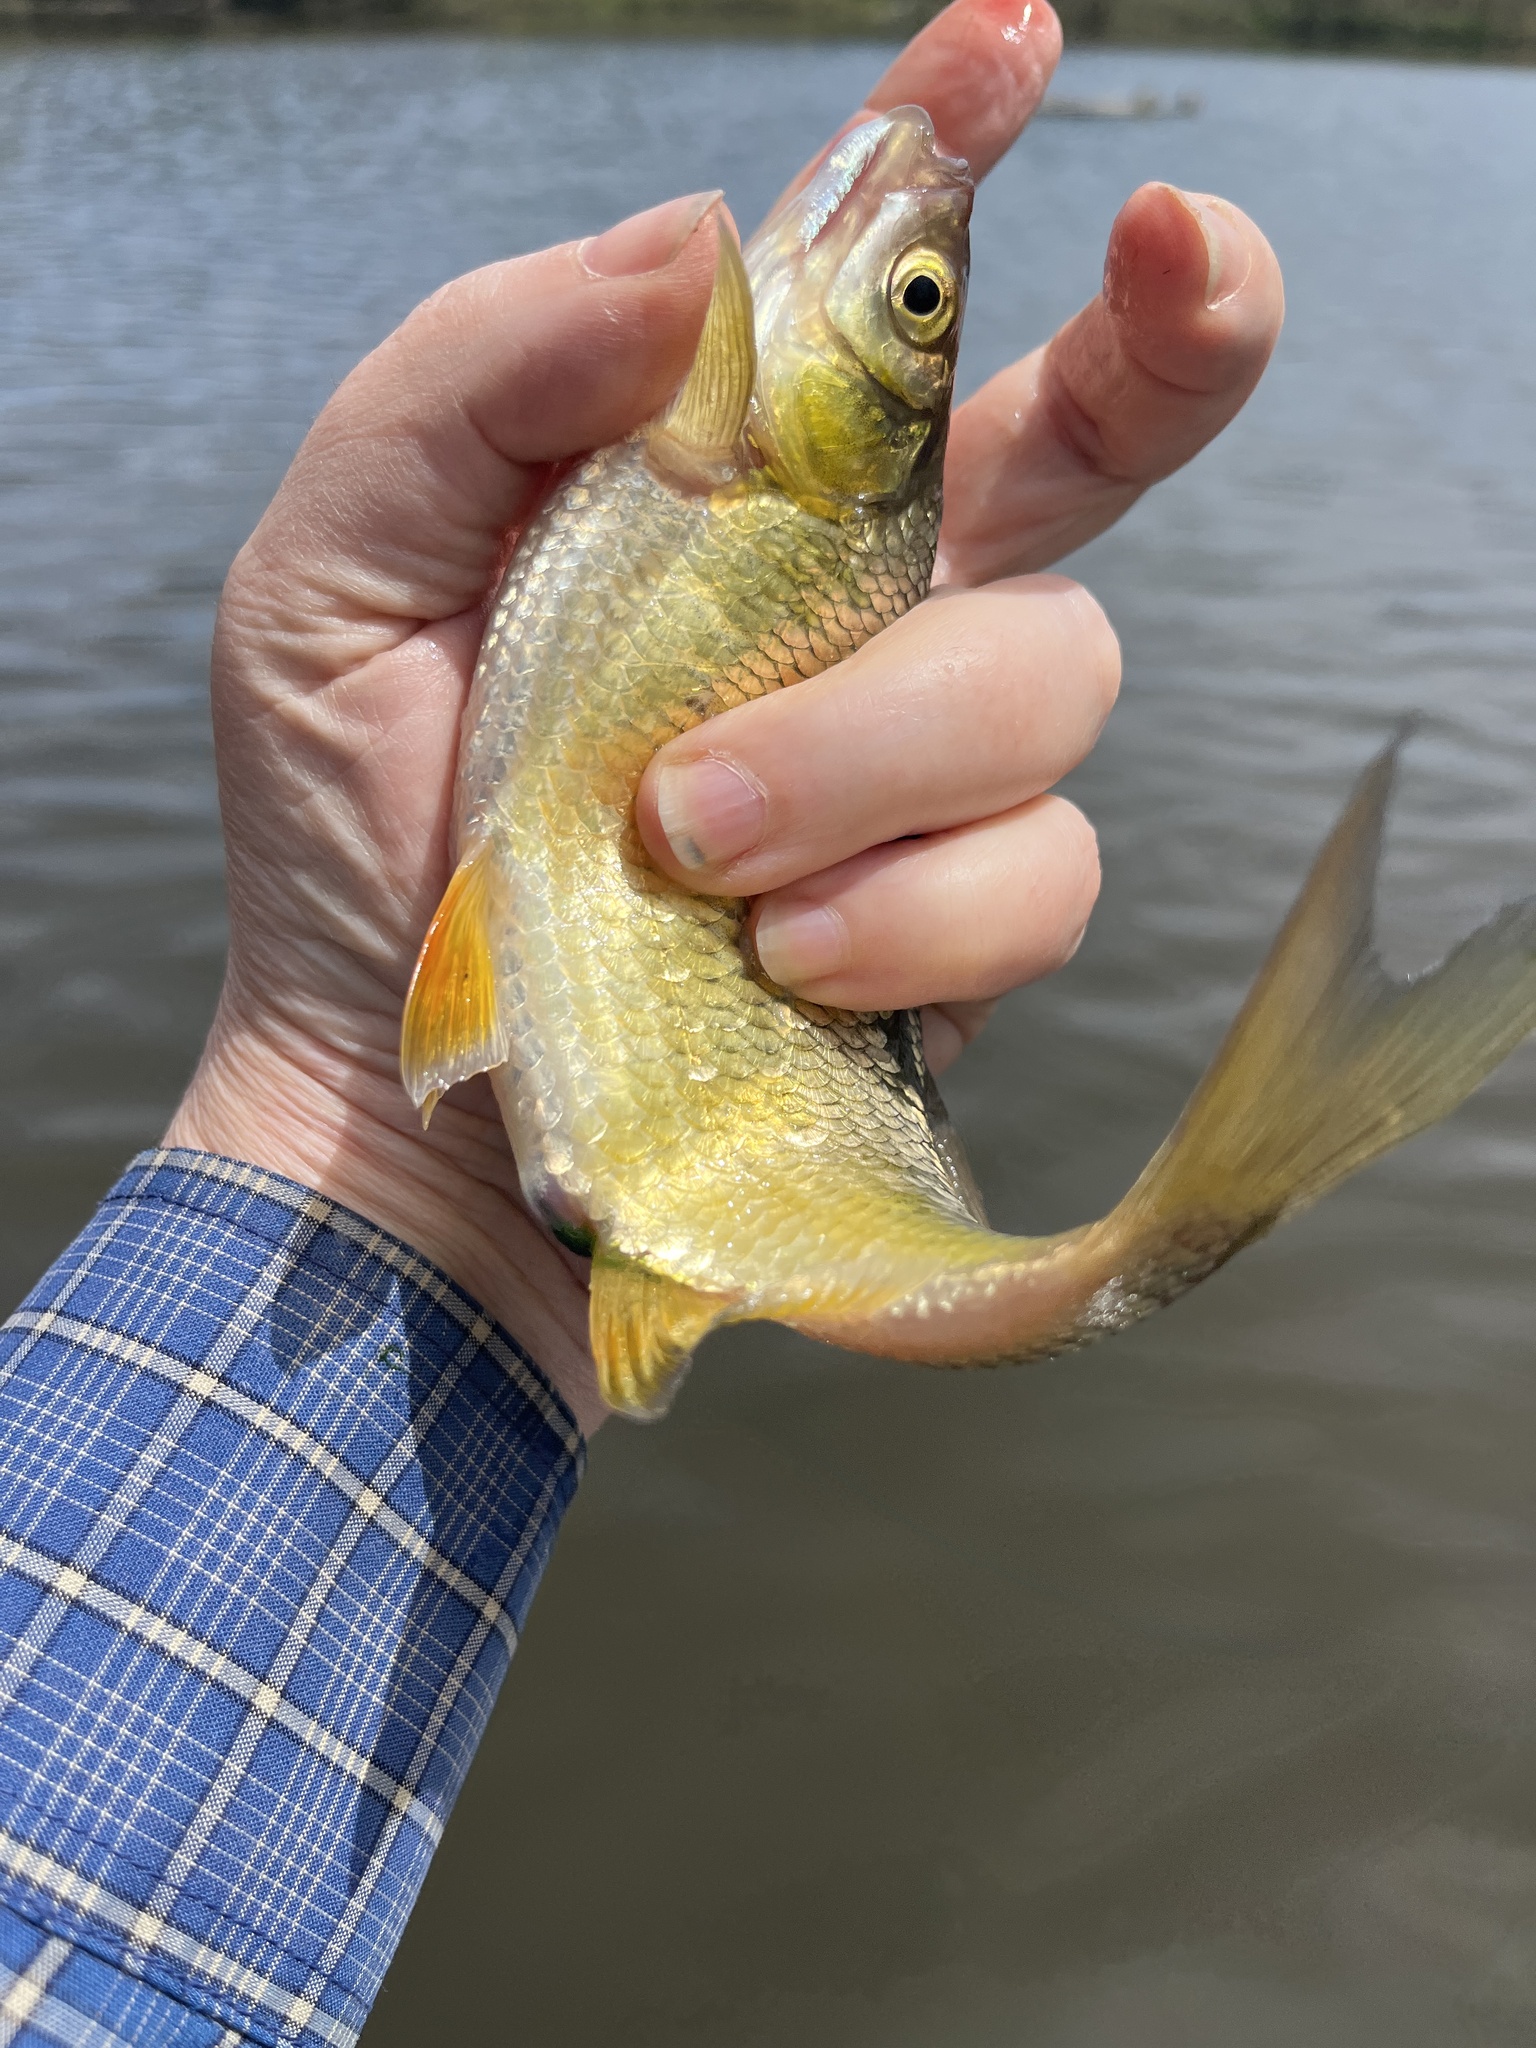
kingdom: Animalia
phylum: Chordata
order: Cypriniformes
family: Cyprinidae
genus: Notemigonus
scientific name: Notemigonus crysoleucas
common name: Golden shiner
